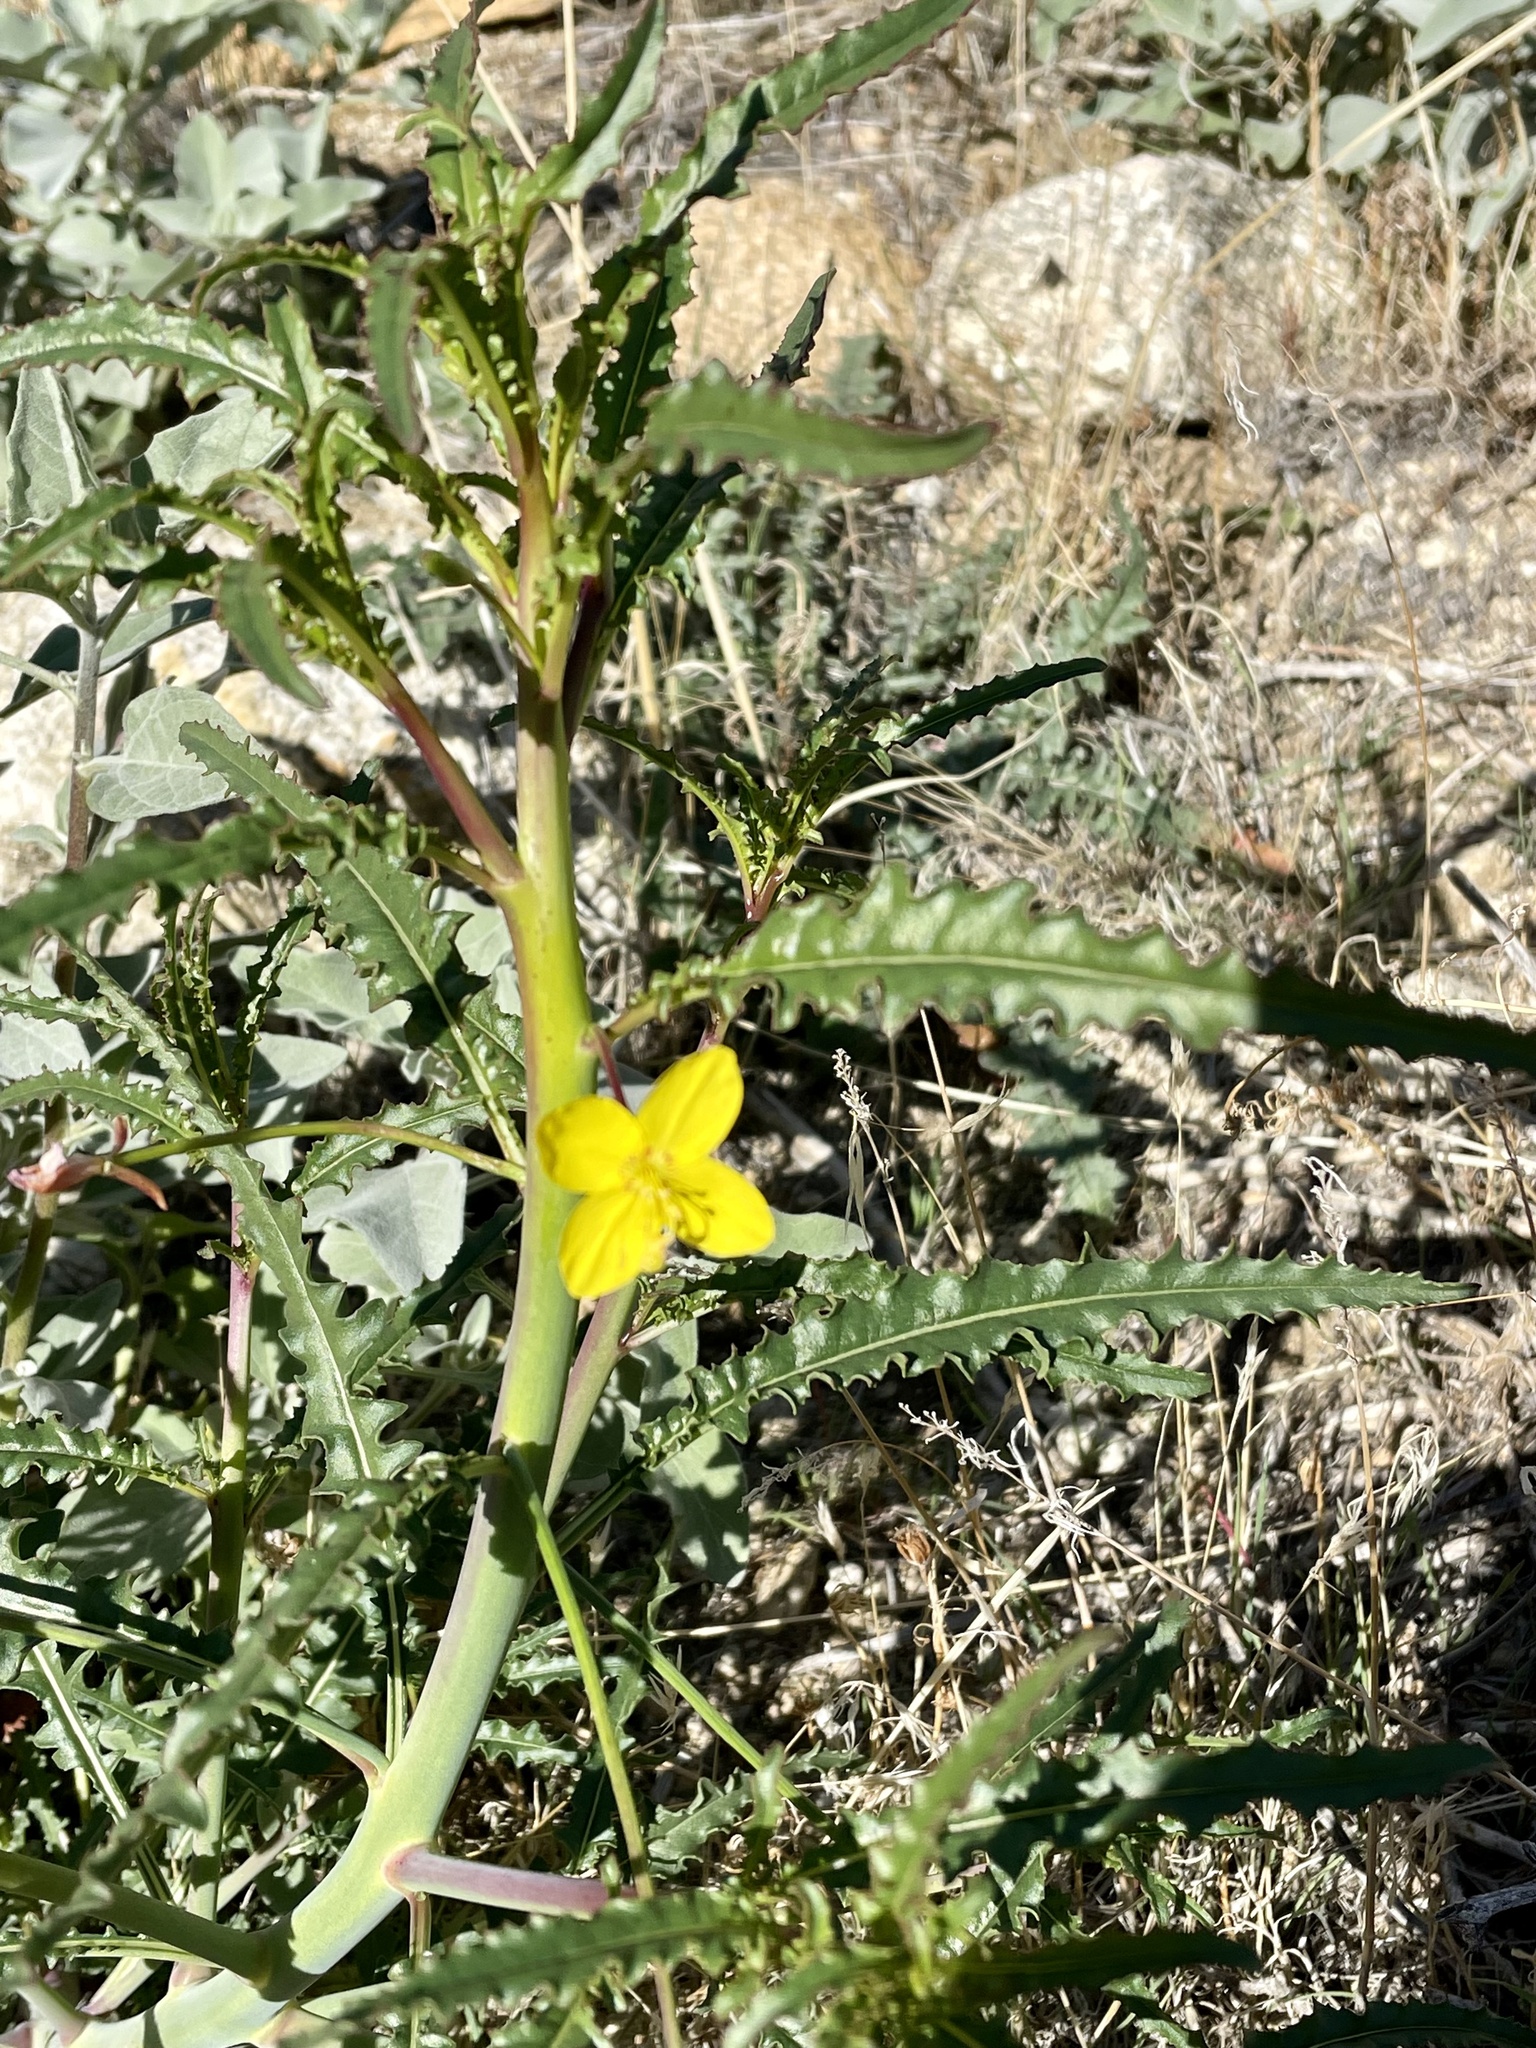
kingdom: Plantae
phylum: Tracheophyta
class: Magnoliopsida
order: Myrtales
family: Onagraceae
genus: Eulobus
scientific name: Eulobus californicus
